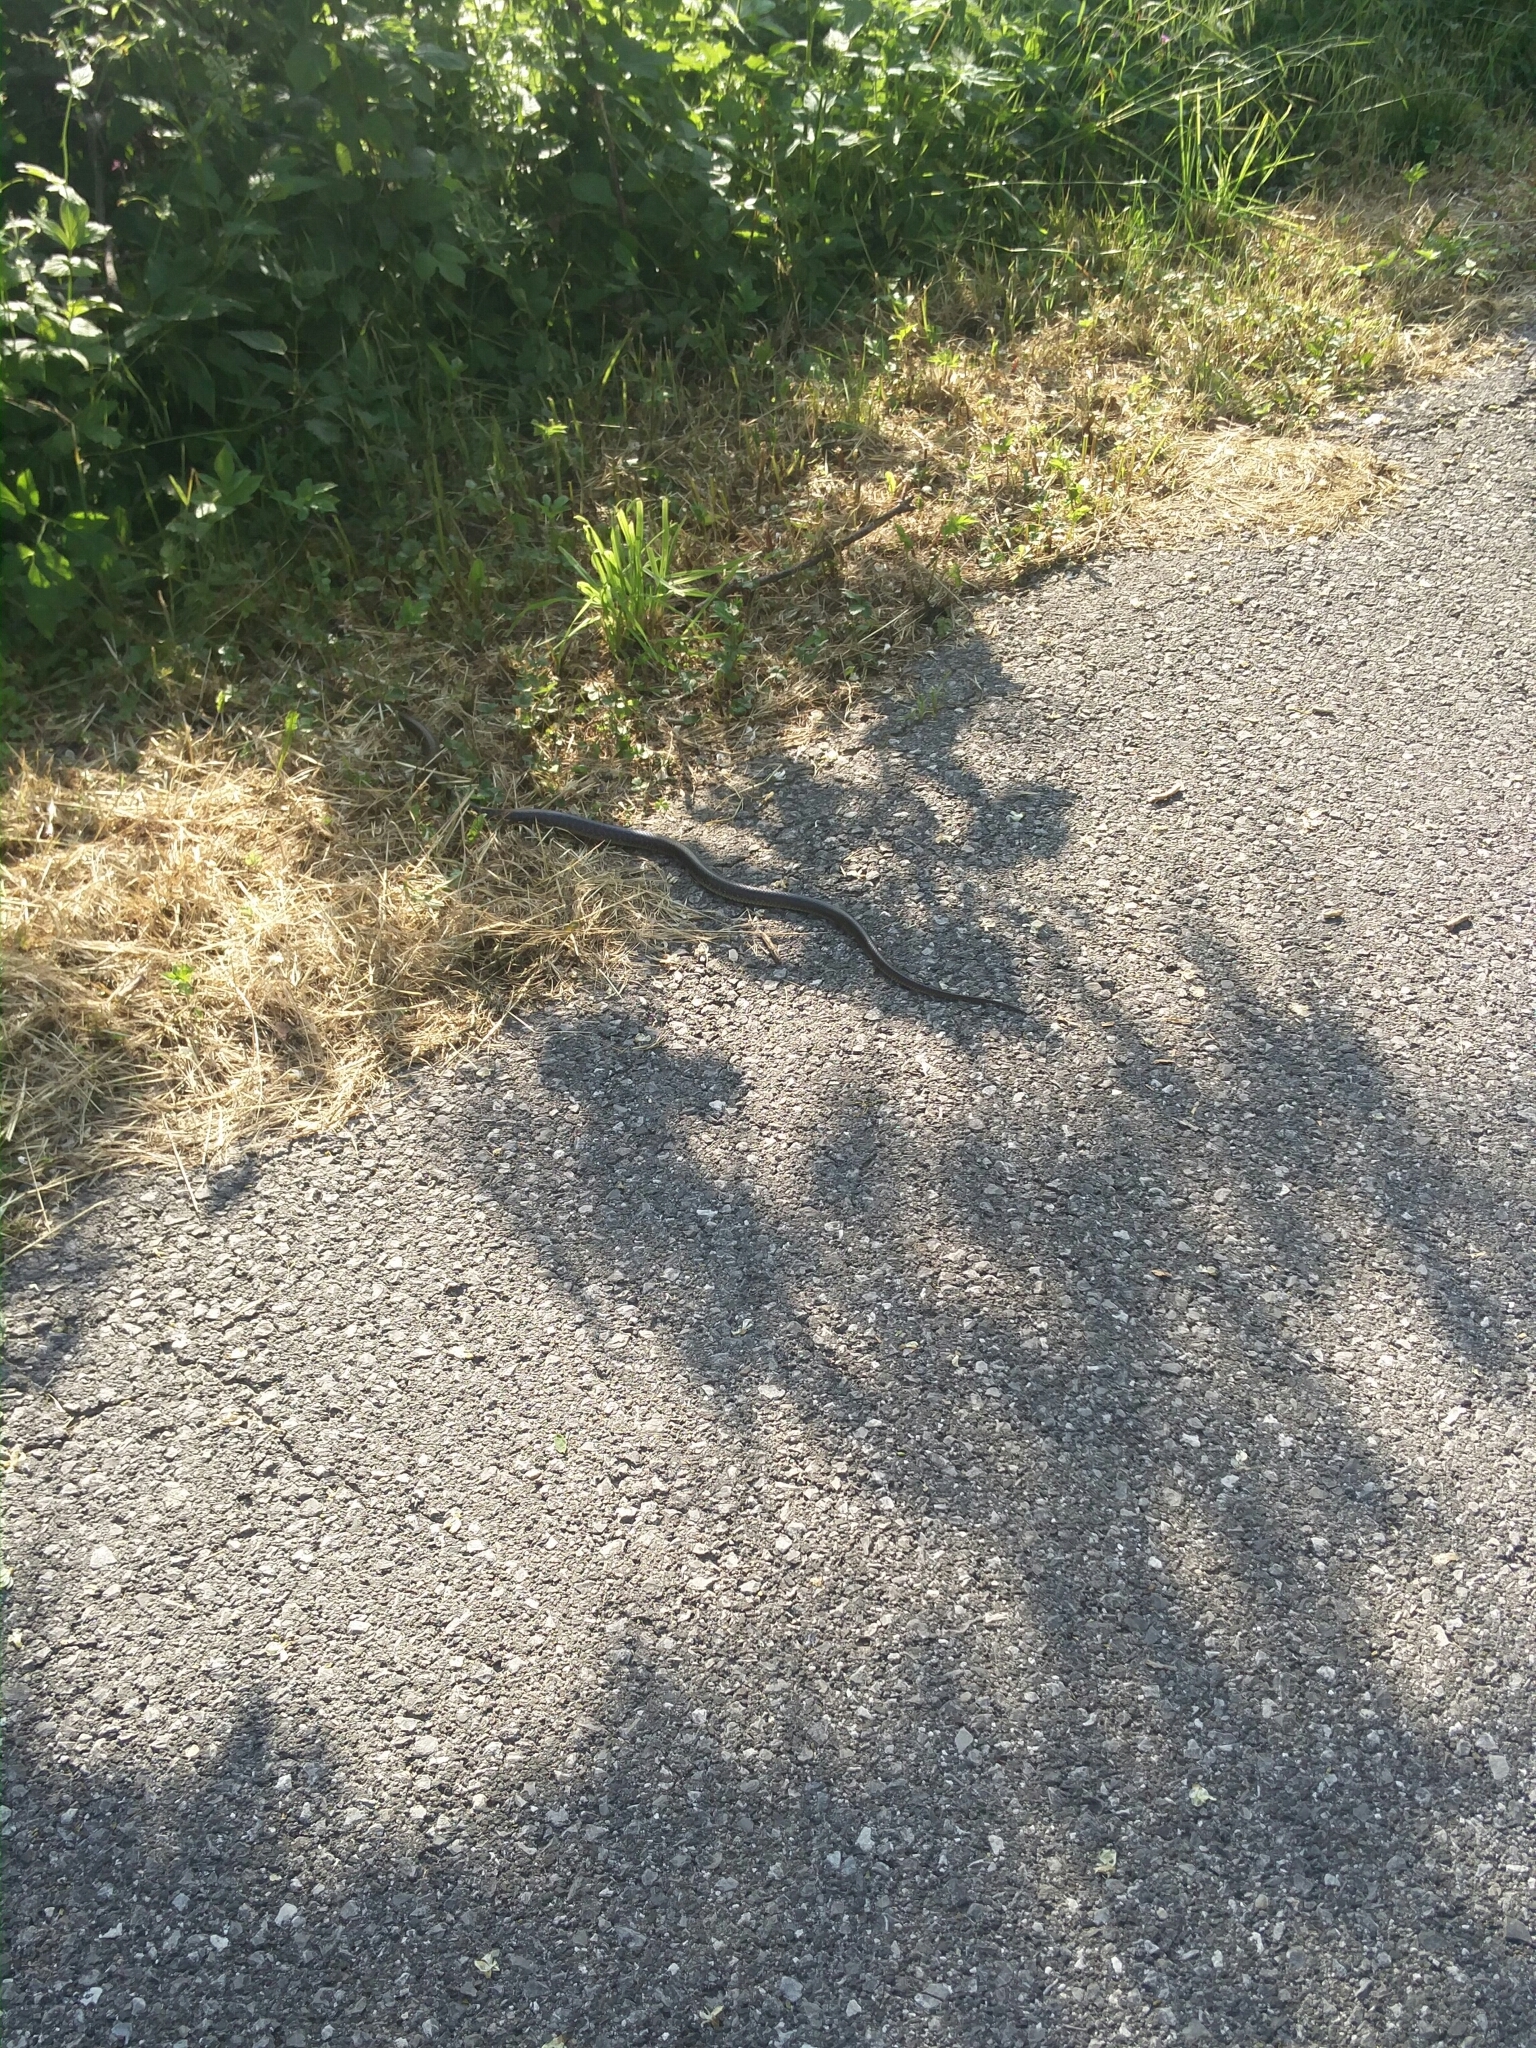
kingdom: Animalia
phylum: Chordata
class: Squamata
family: Colubridae
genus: Zamenis
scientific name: Zamenis longissimus
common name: Aesculapean snake
